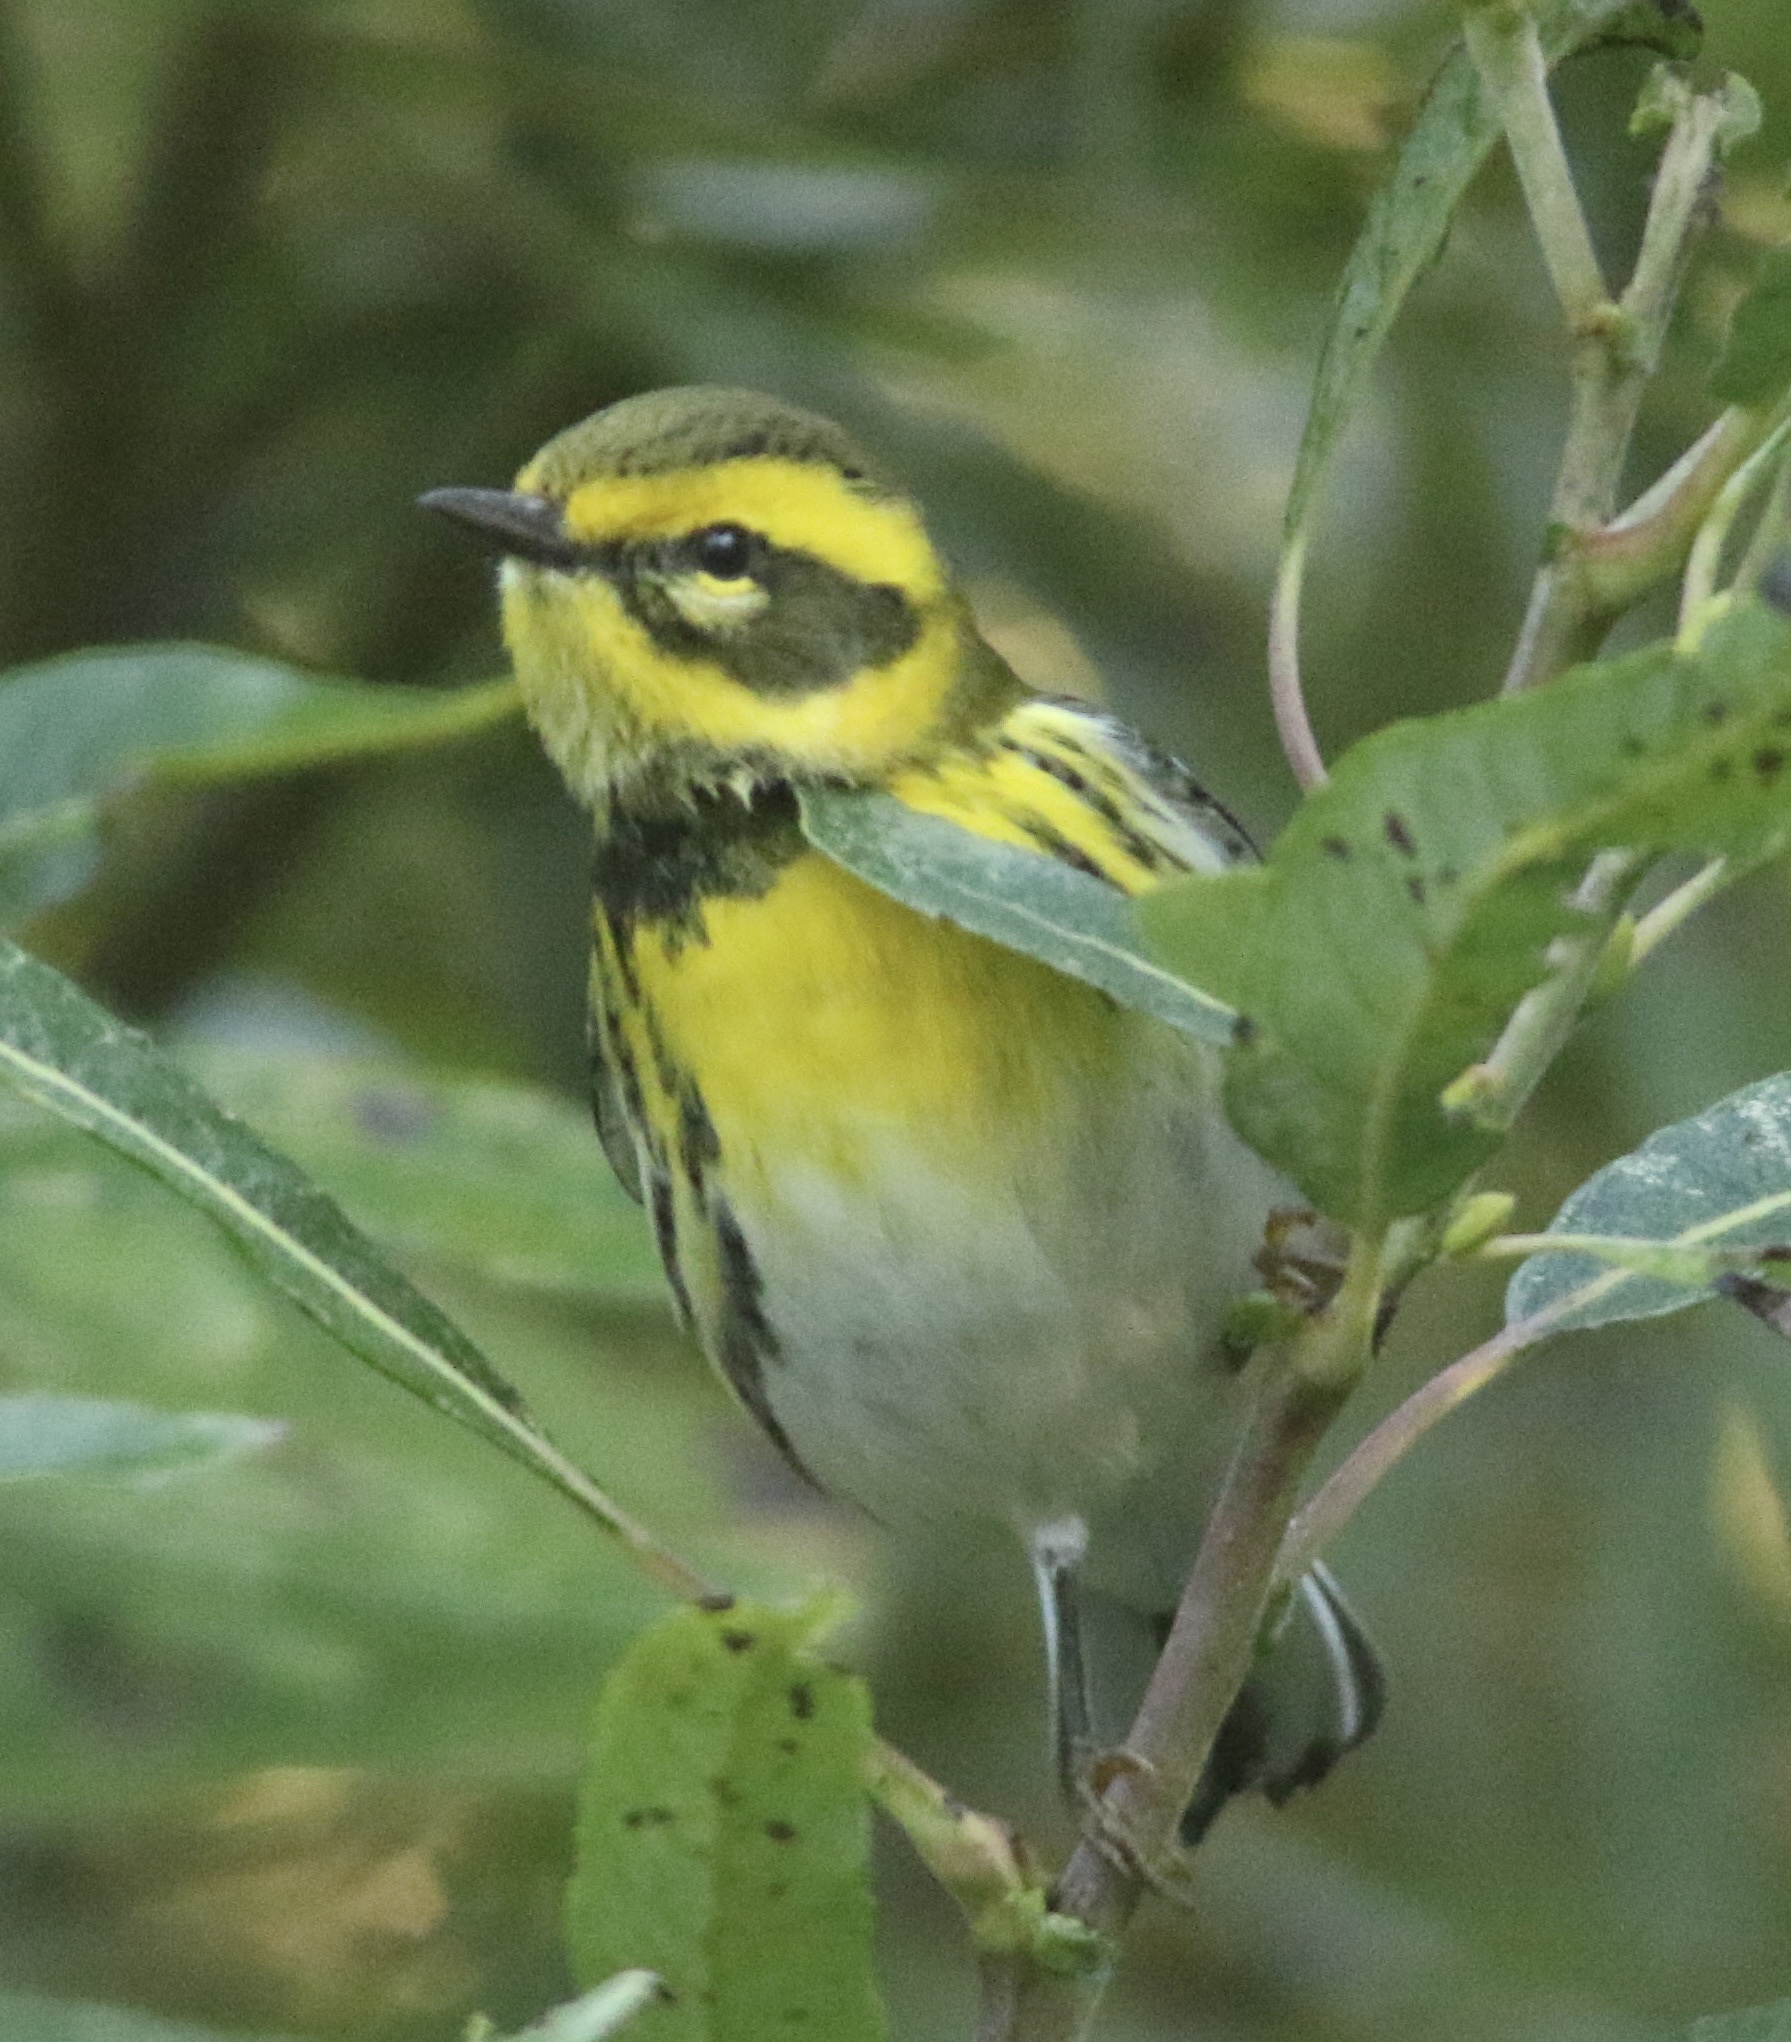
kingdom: Animalia
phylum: Chordata
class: Aves
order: Passeriformes
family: Parulidae
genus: Setophaga
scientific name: Setophaga townsendi
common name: Townsend's warbler
